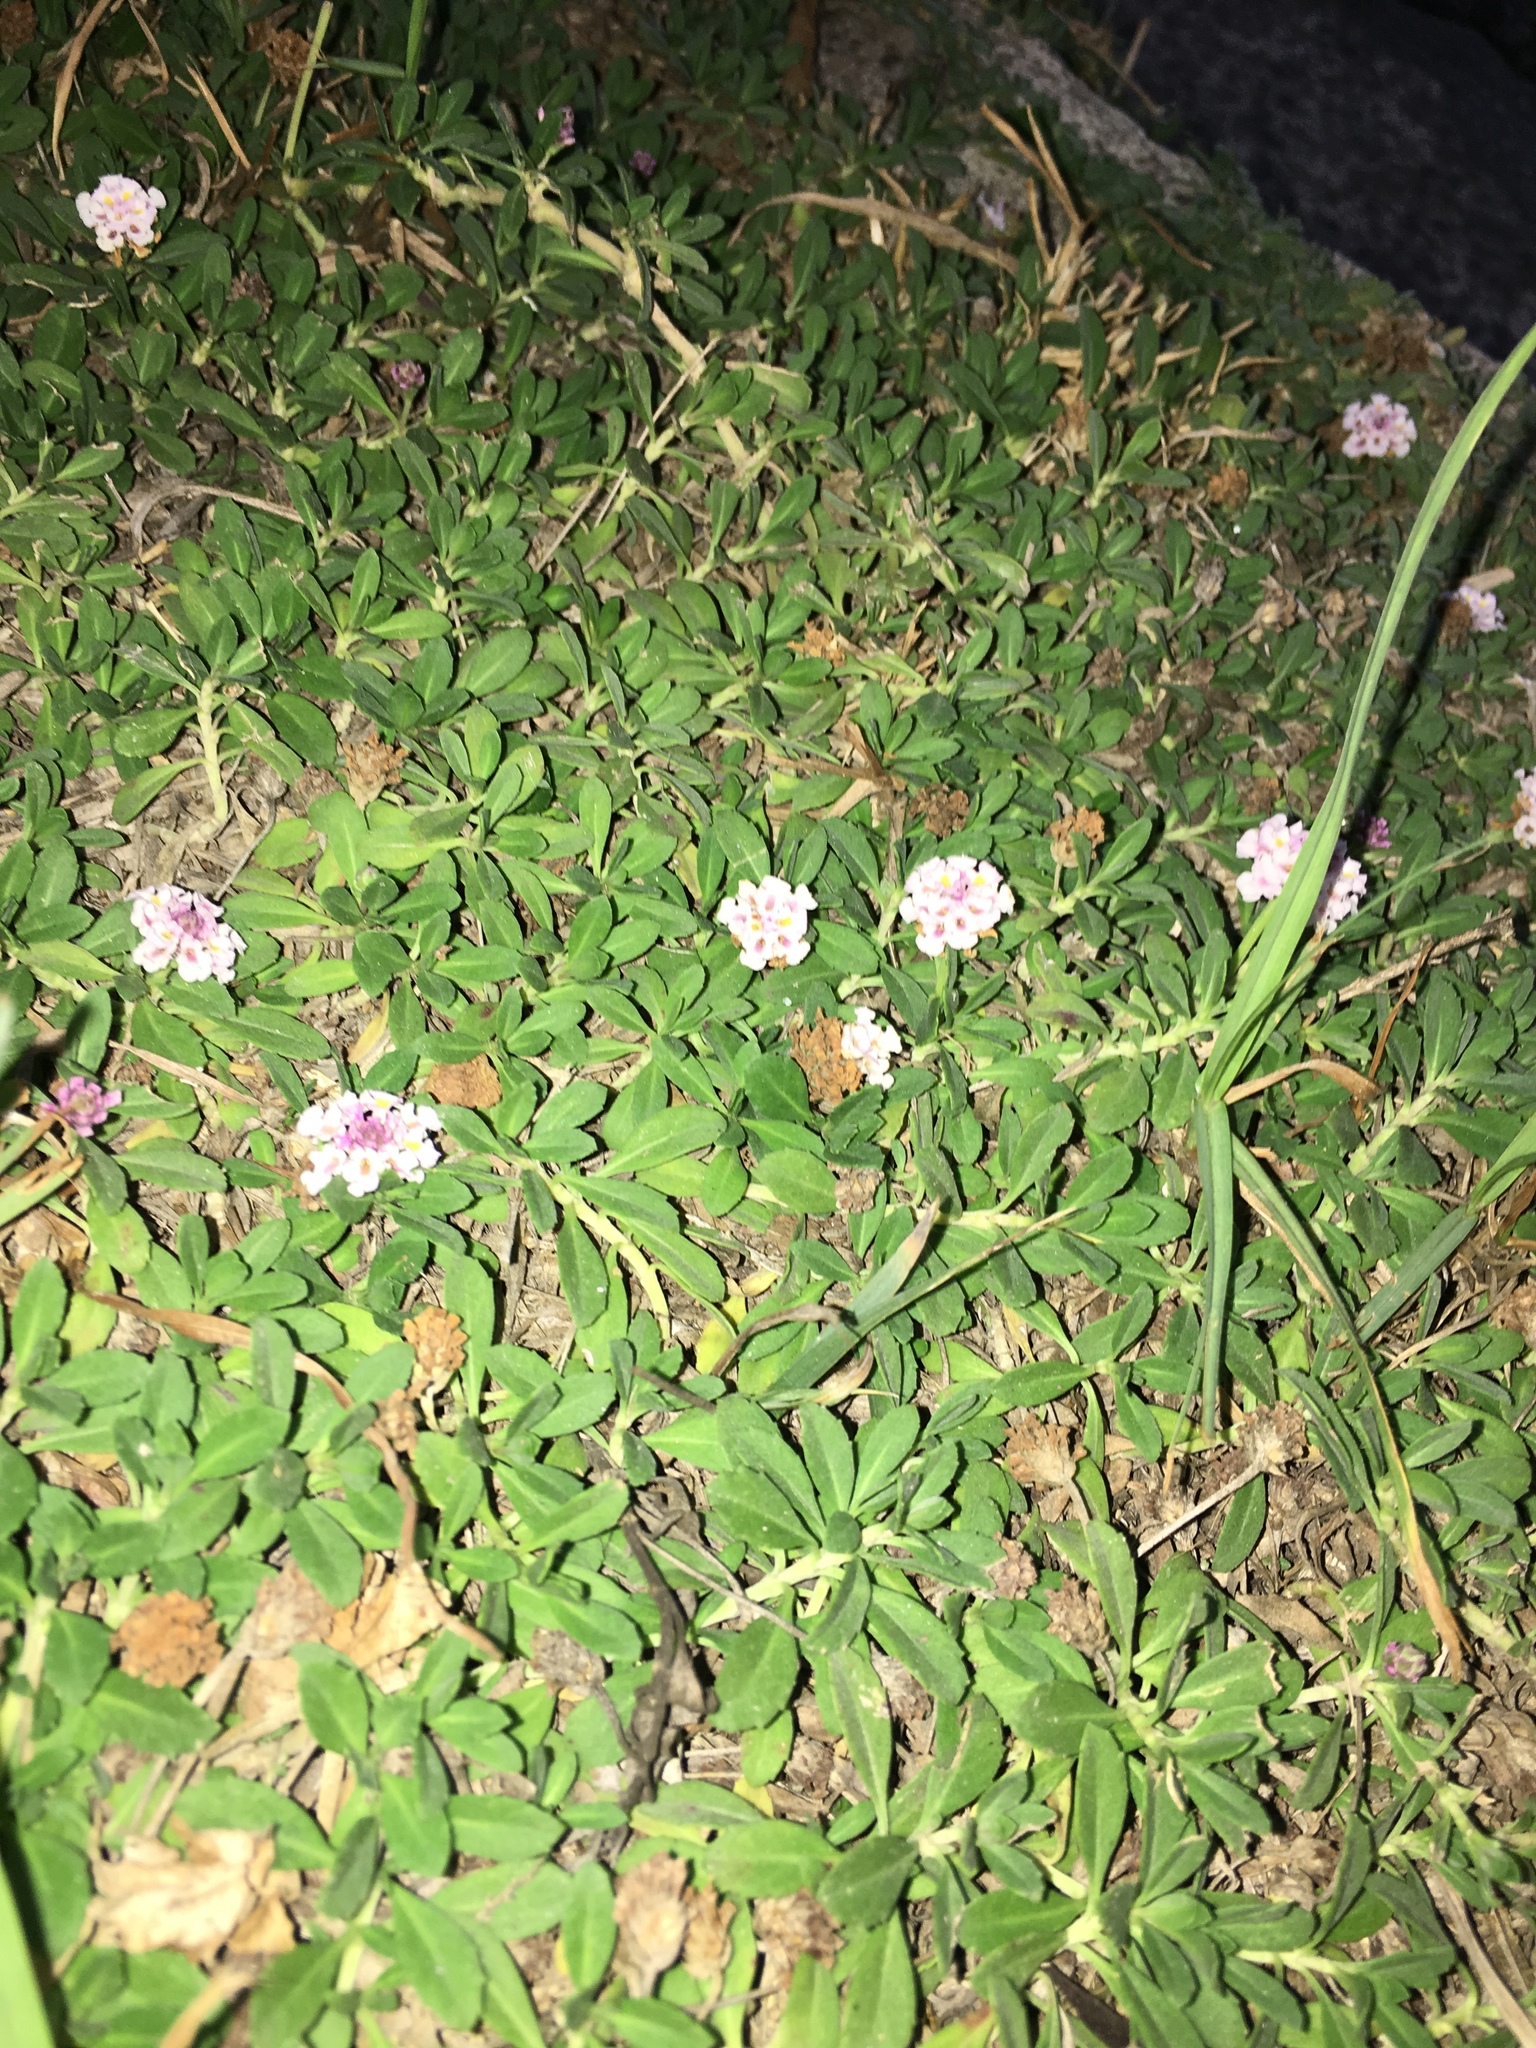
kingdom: Plantae
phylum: Tracheophyta
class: Magnoliopsida
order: Lamiales
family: Verbenaceae
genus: Phyla
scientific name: Phyla nodiflora
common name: Frogfruit
